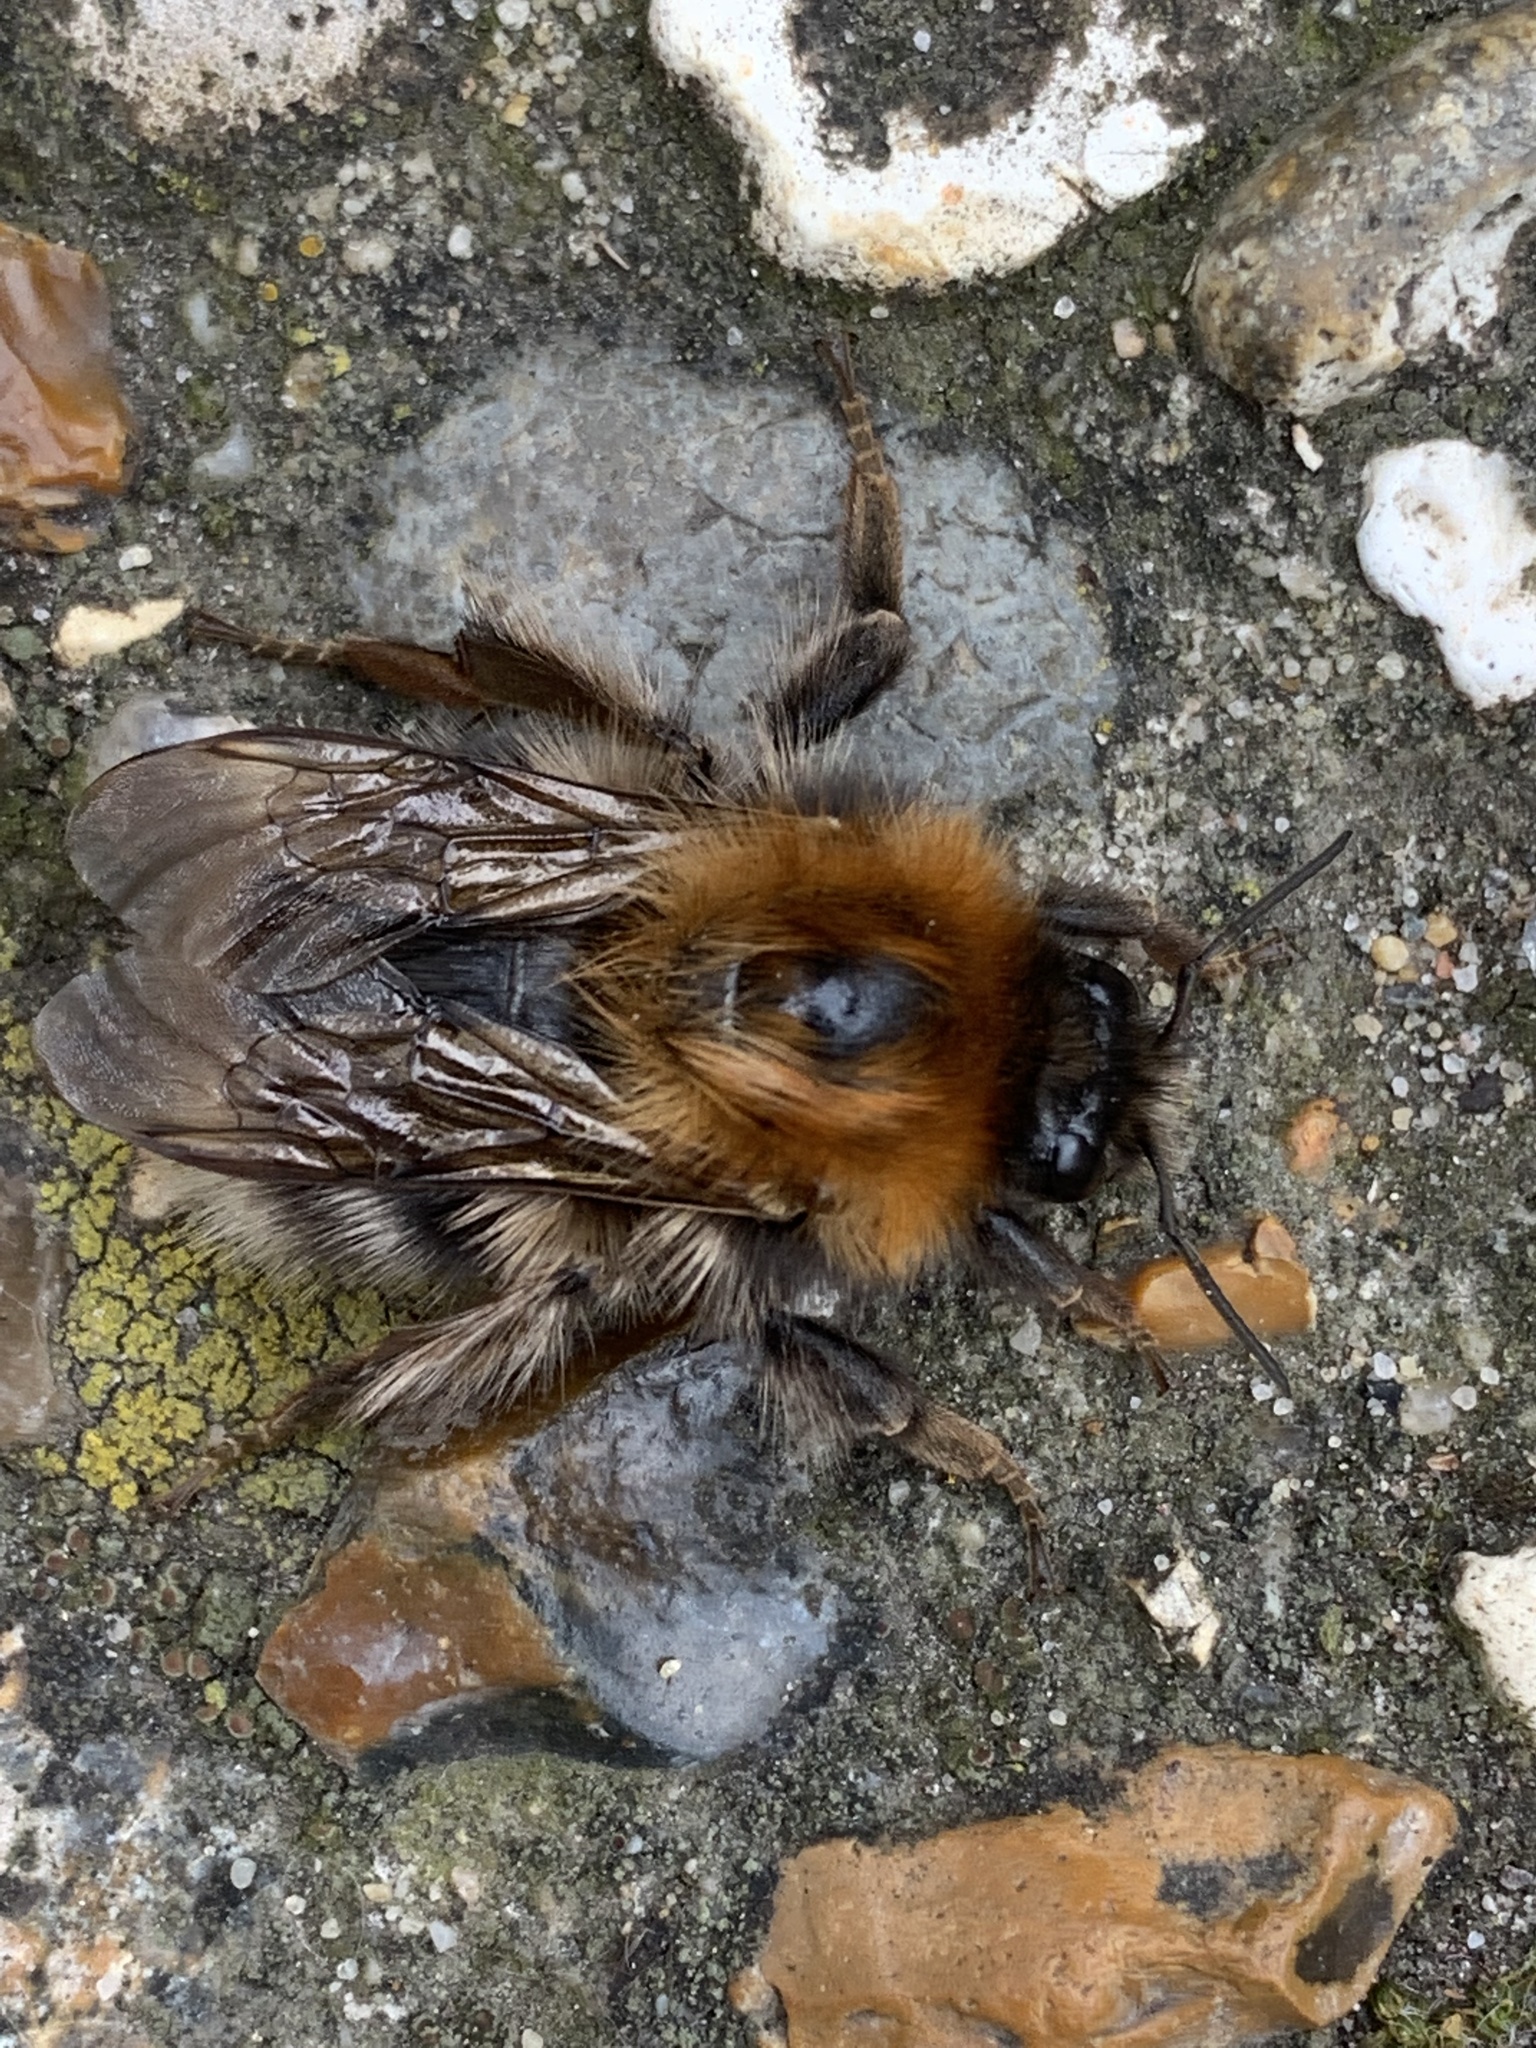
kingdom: Animalia
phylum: Arthropoda
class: Insecta
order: Hymenoptera
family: Apidae
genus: Bombus
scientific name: Bombus hypnorum
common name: New garden bumblebee
